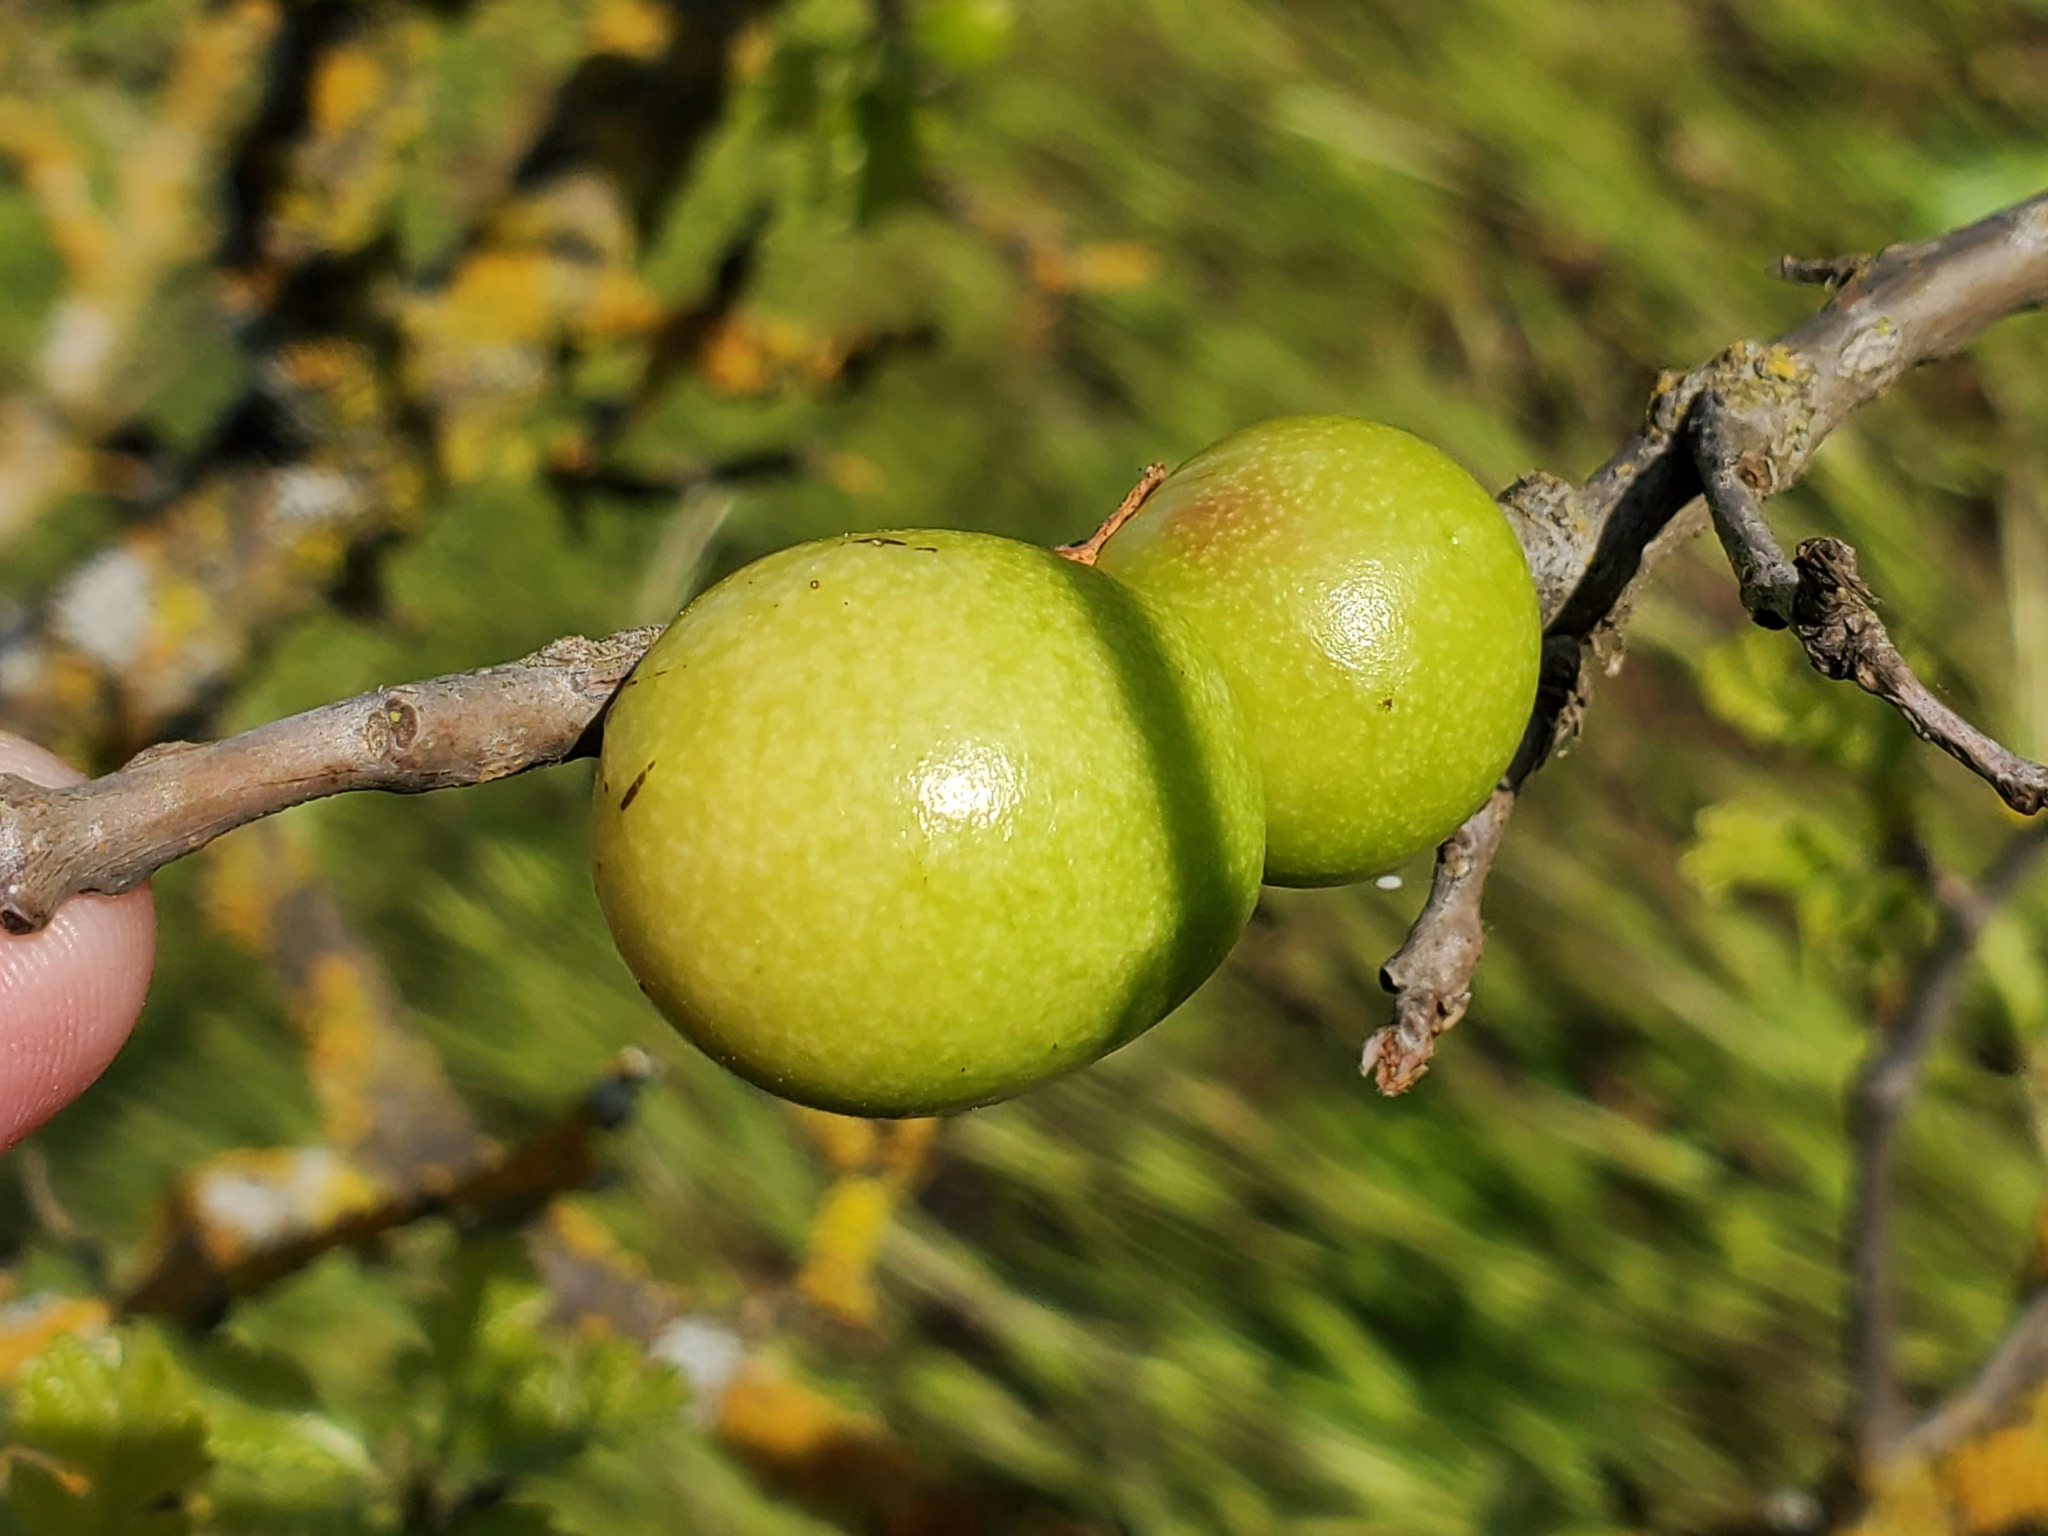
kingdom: Animalia
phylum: Arthropoda
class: Insecta
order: Hymenoptera
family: Cynipidae
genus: Andricus
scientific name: Andricus quercuscalifornicus
